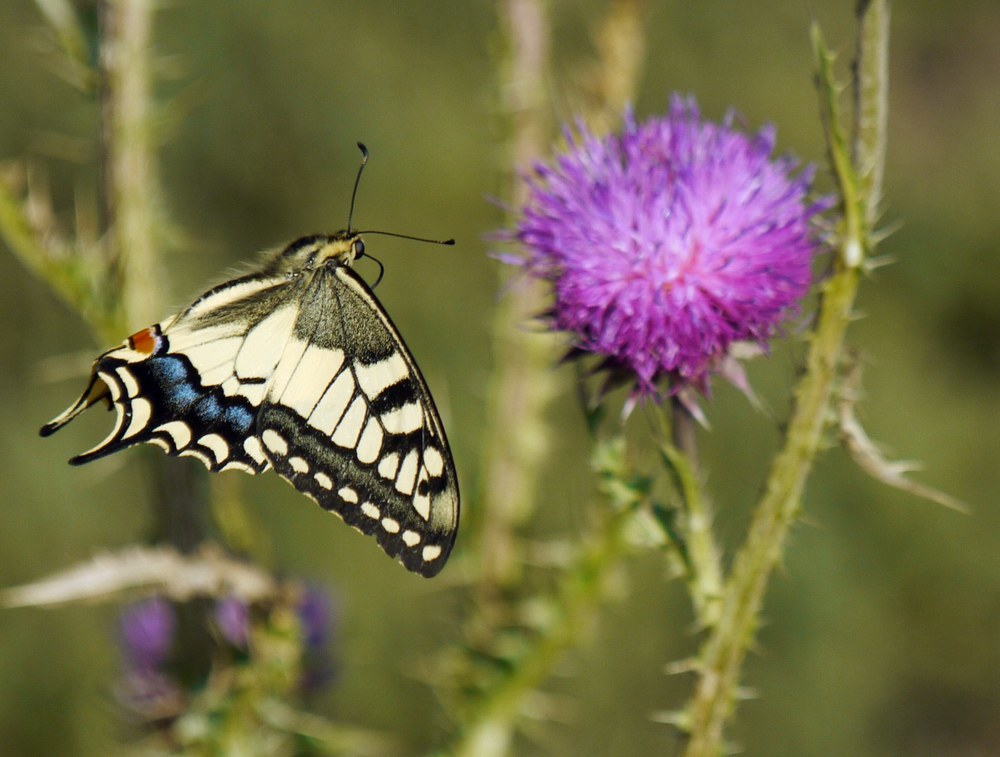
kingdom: Animalia
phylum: Arthropoda
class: Insecta
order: Lepidoptera
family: Papilionidae
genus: Papilio
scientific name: Papilio machaon
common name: Swallowtail
